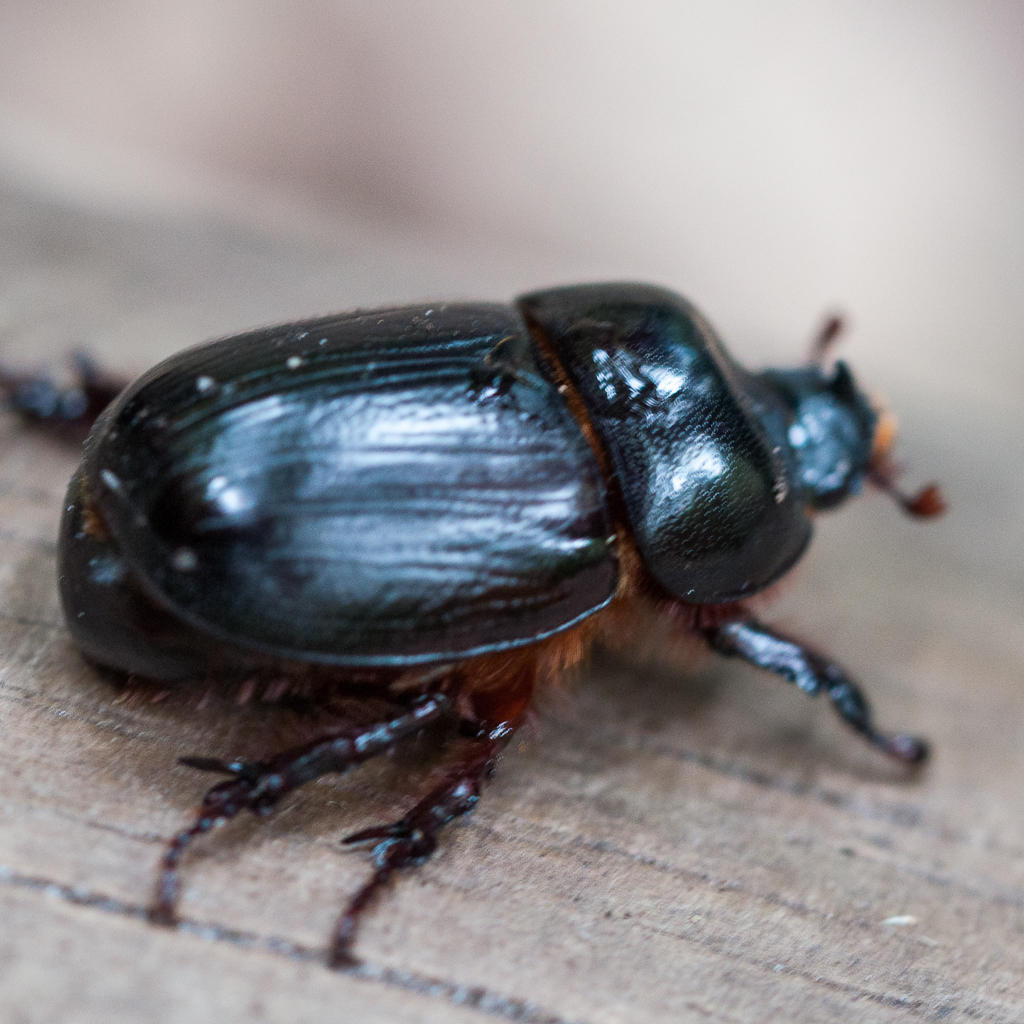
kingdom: Animalia
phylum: Arthropoda
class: Insecta
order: Coleoptera
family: Scarabaeidae
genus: Oryctes
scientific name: Oryctes boas
